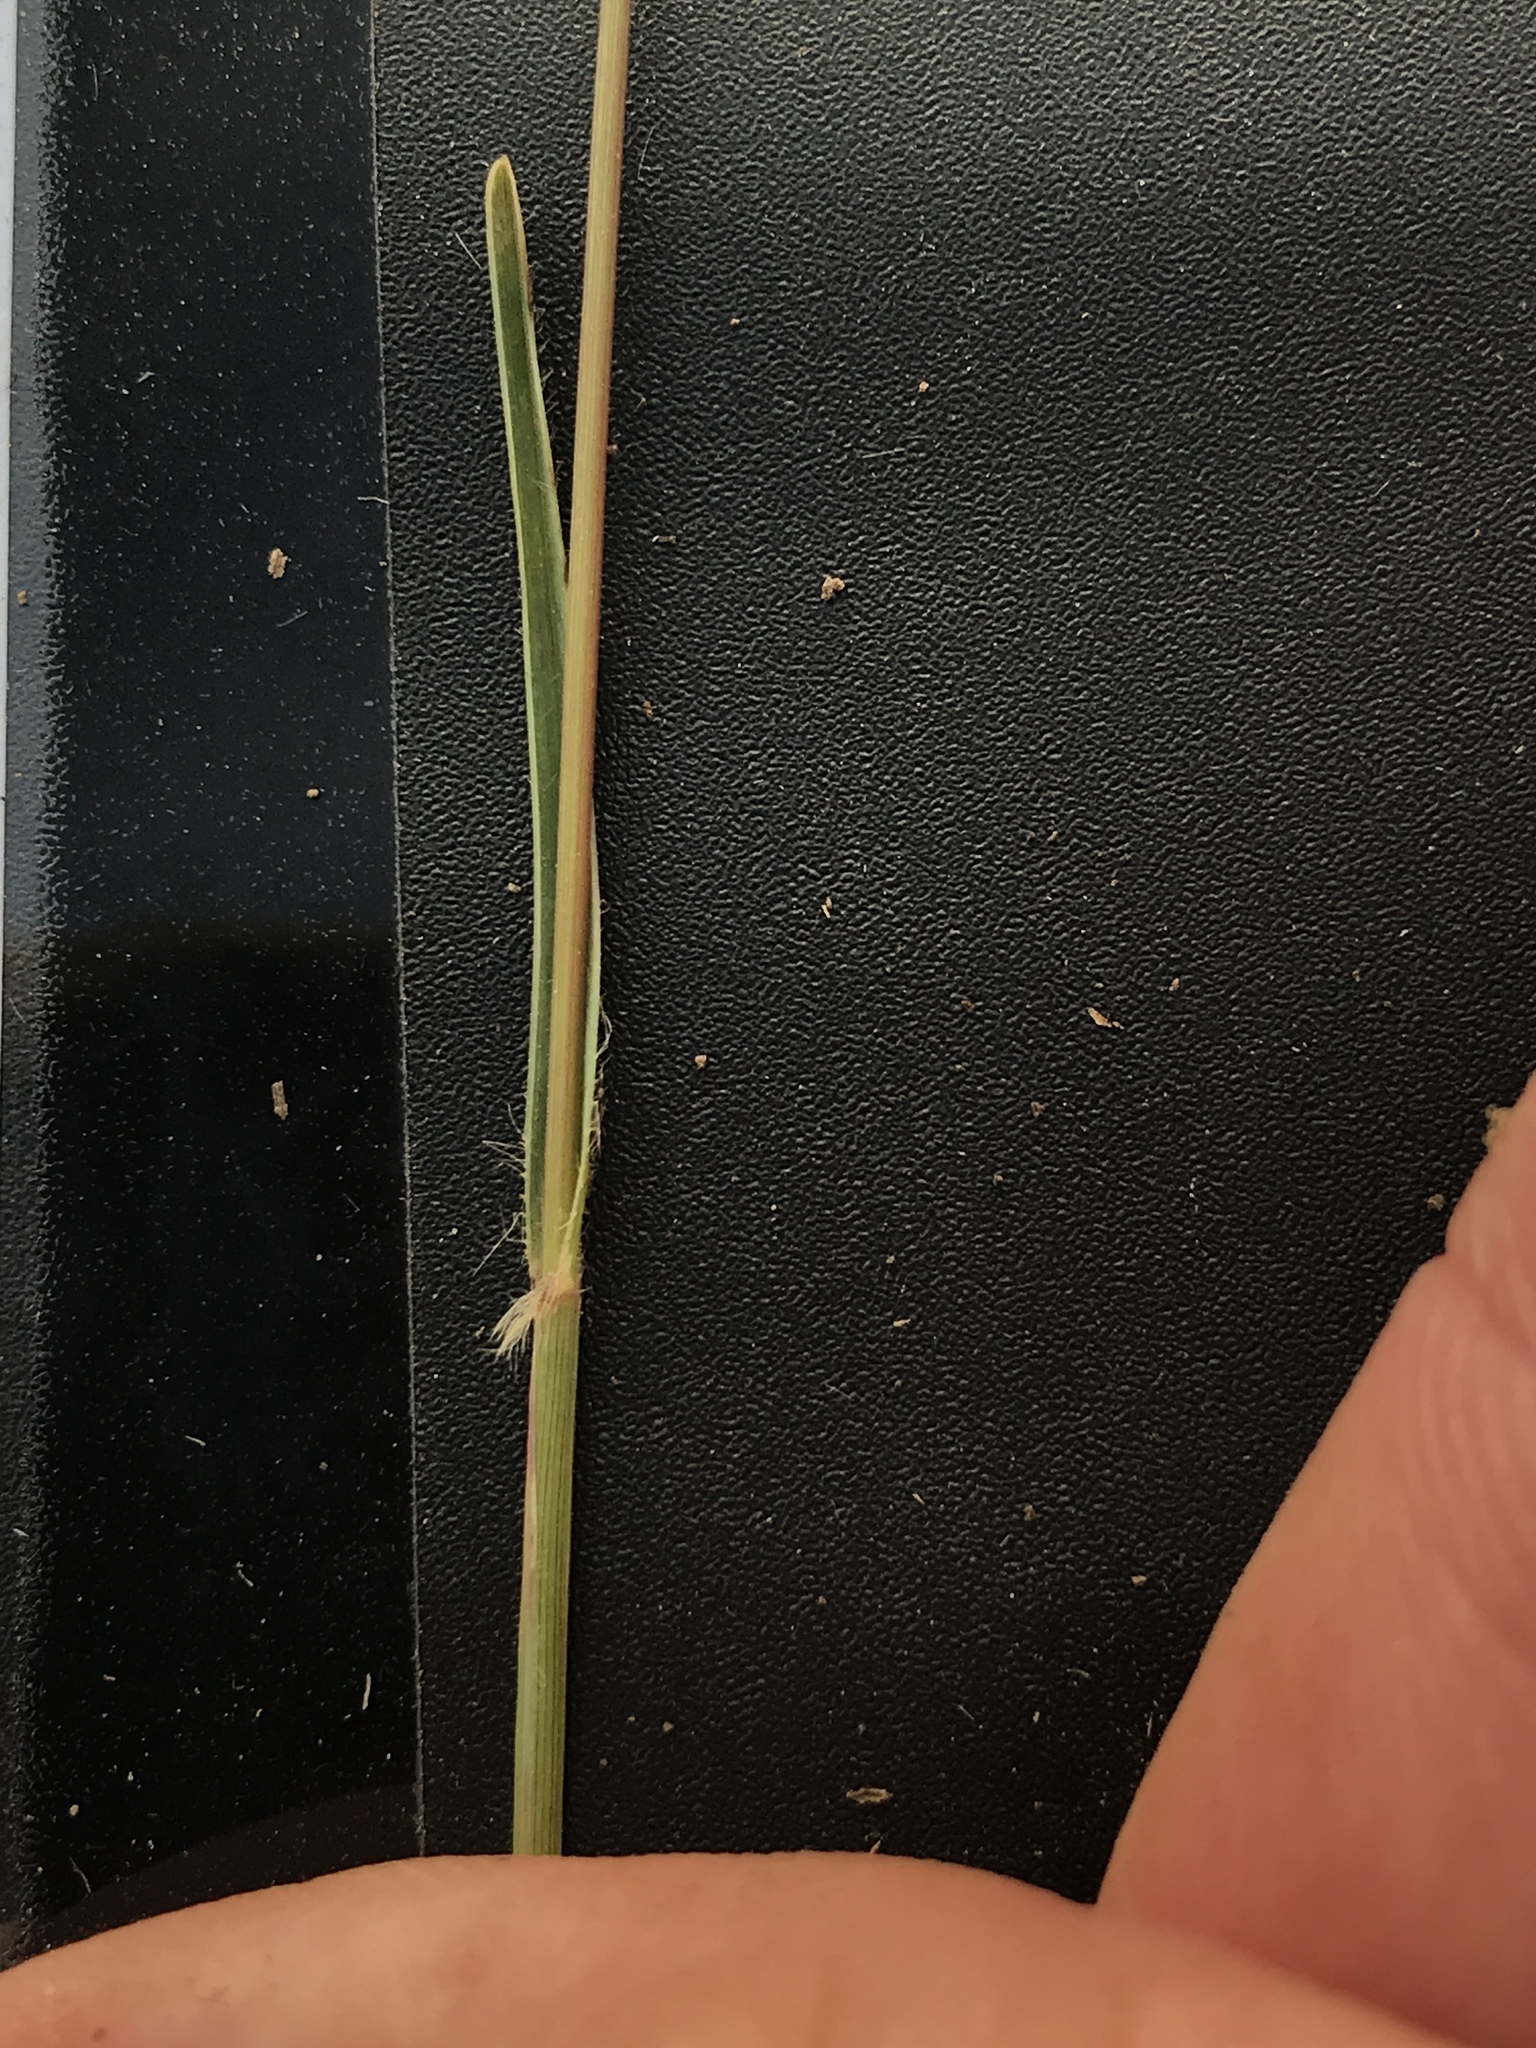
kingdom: Plantae
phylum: Tracheophyta
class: Liliopsida
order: Poales
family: Poaceae
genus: Erioneuron
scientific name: Erioneuron pilosum
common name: Hairy woolly grass
